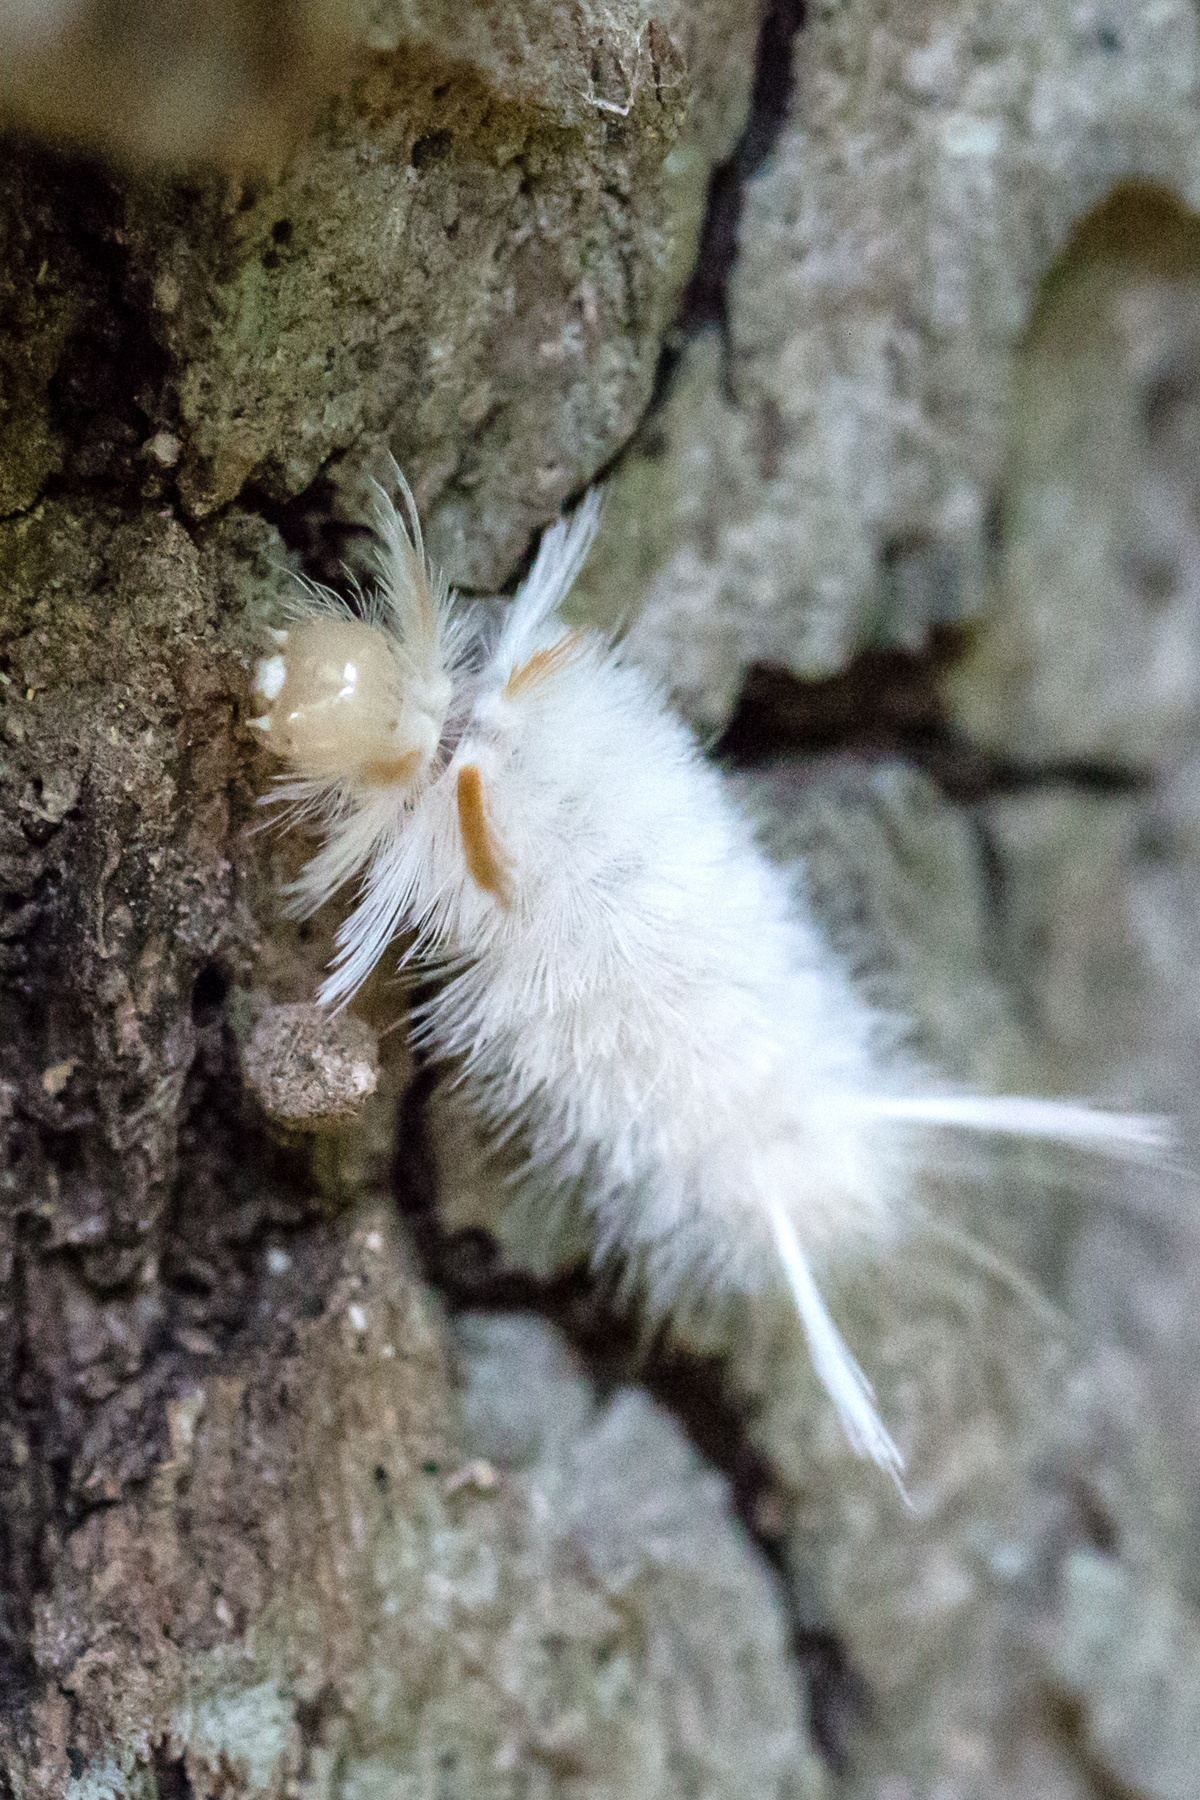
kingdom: Animalia
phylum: Arthropoda
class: Insecta
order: Lepidoptera
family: Erebidae
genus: Halysidota
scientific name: Halysidota harrisii
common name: Sycamore tussock moth
